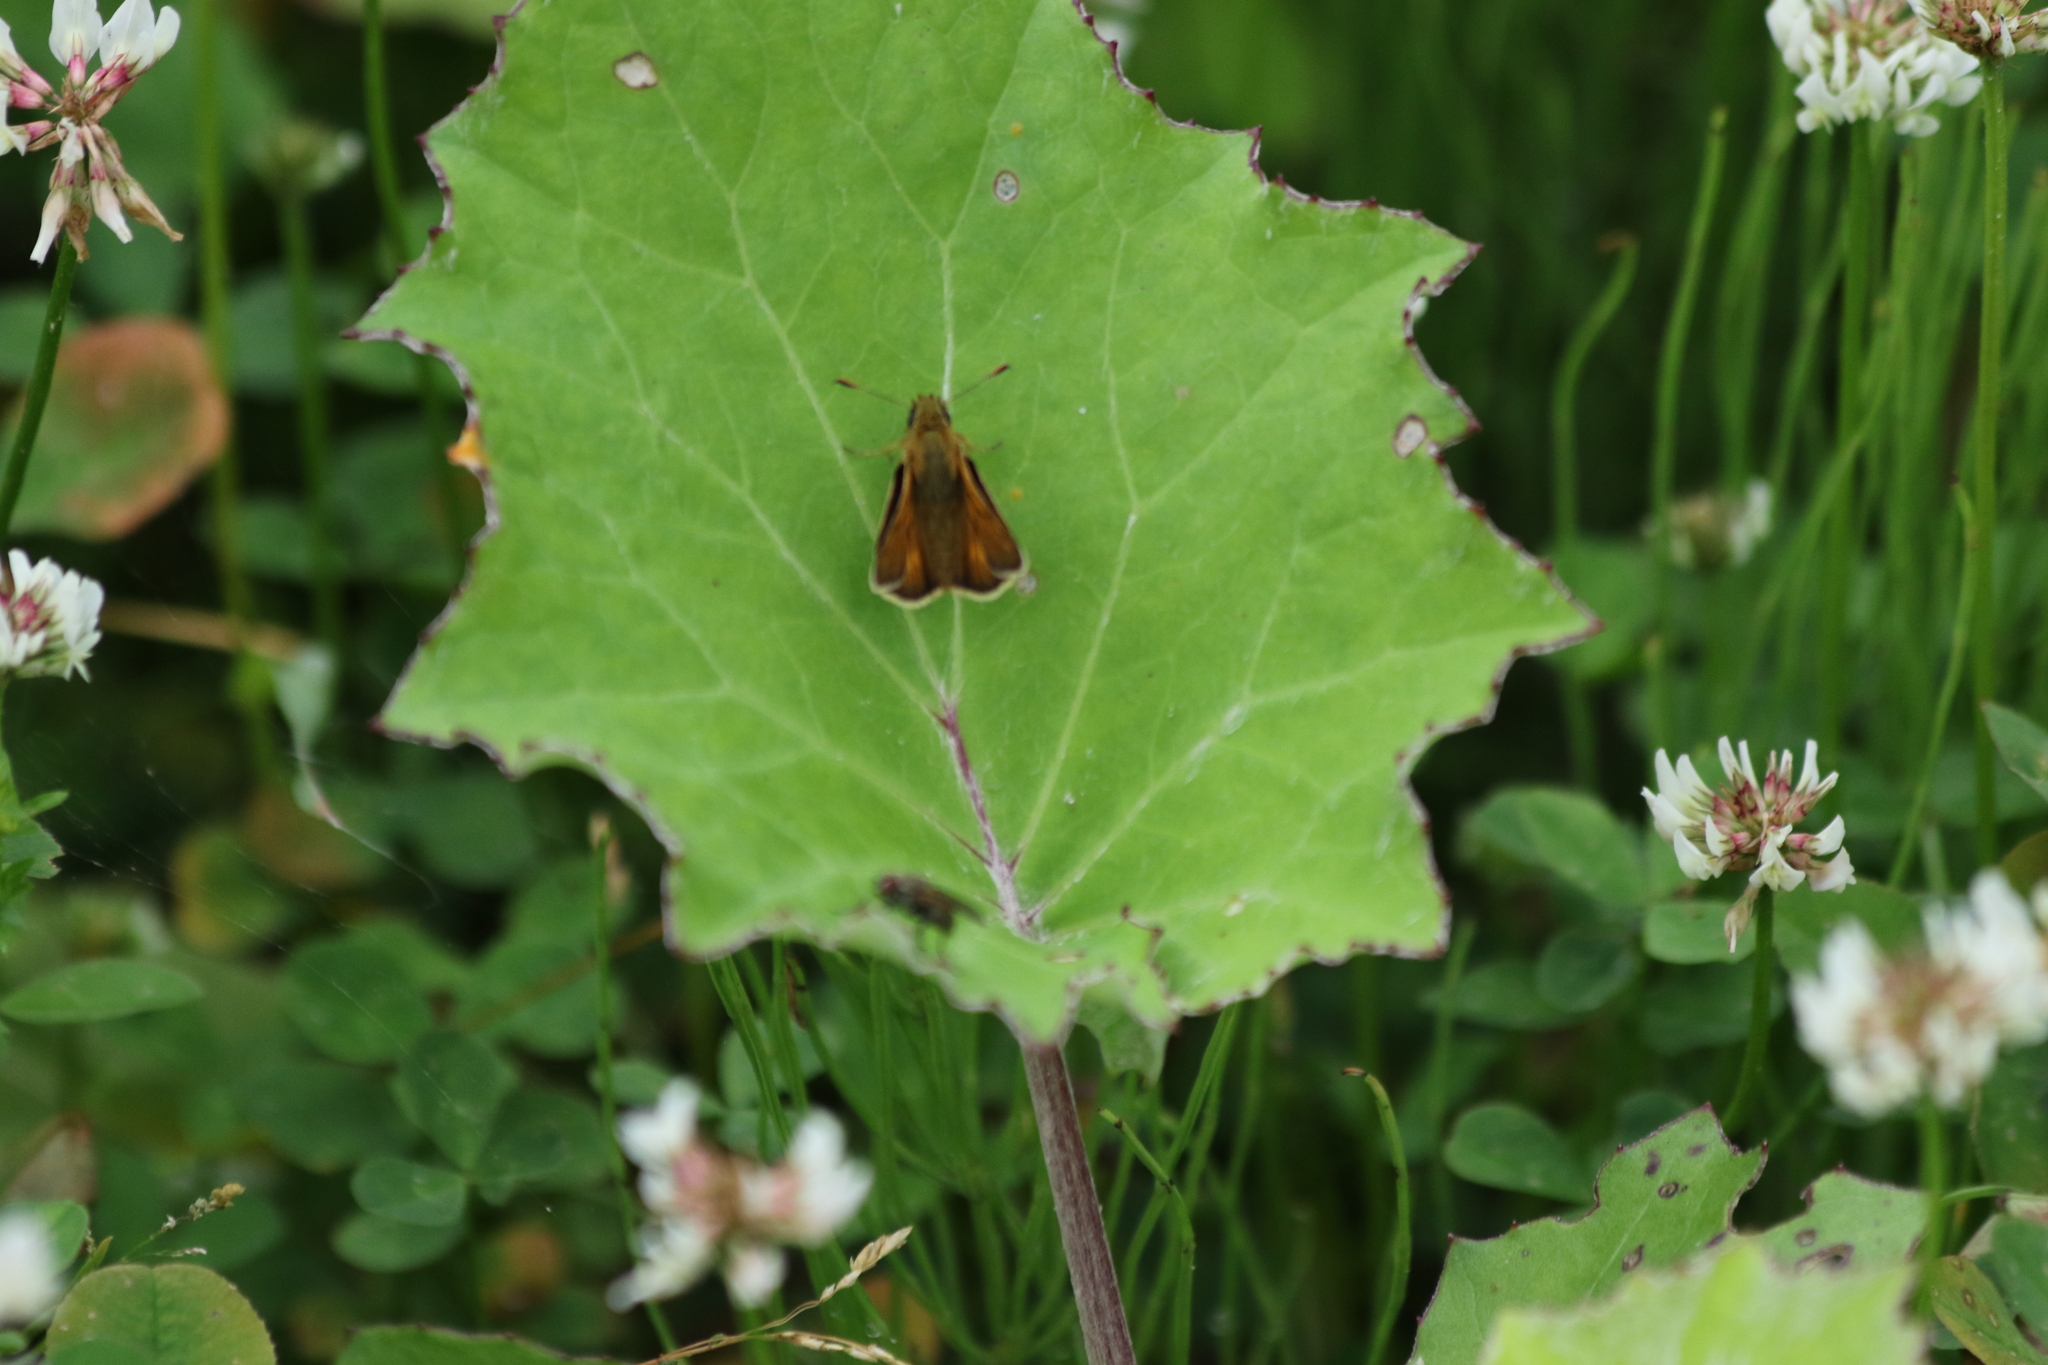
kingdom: Animalia
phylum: Arthropoda
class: Insecta
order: Lepidoptera
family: Hesperiidae
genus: Ochlodes
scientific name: Ochlodes venata
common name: Large skipper
